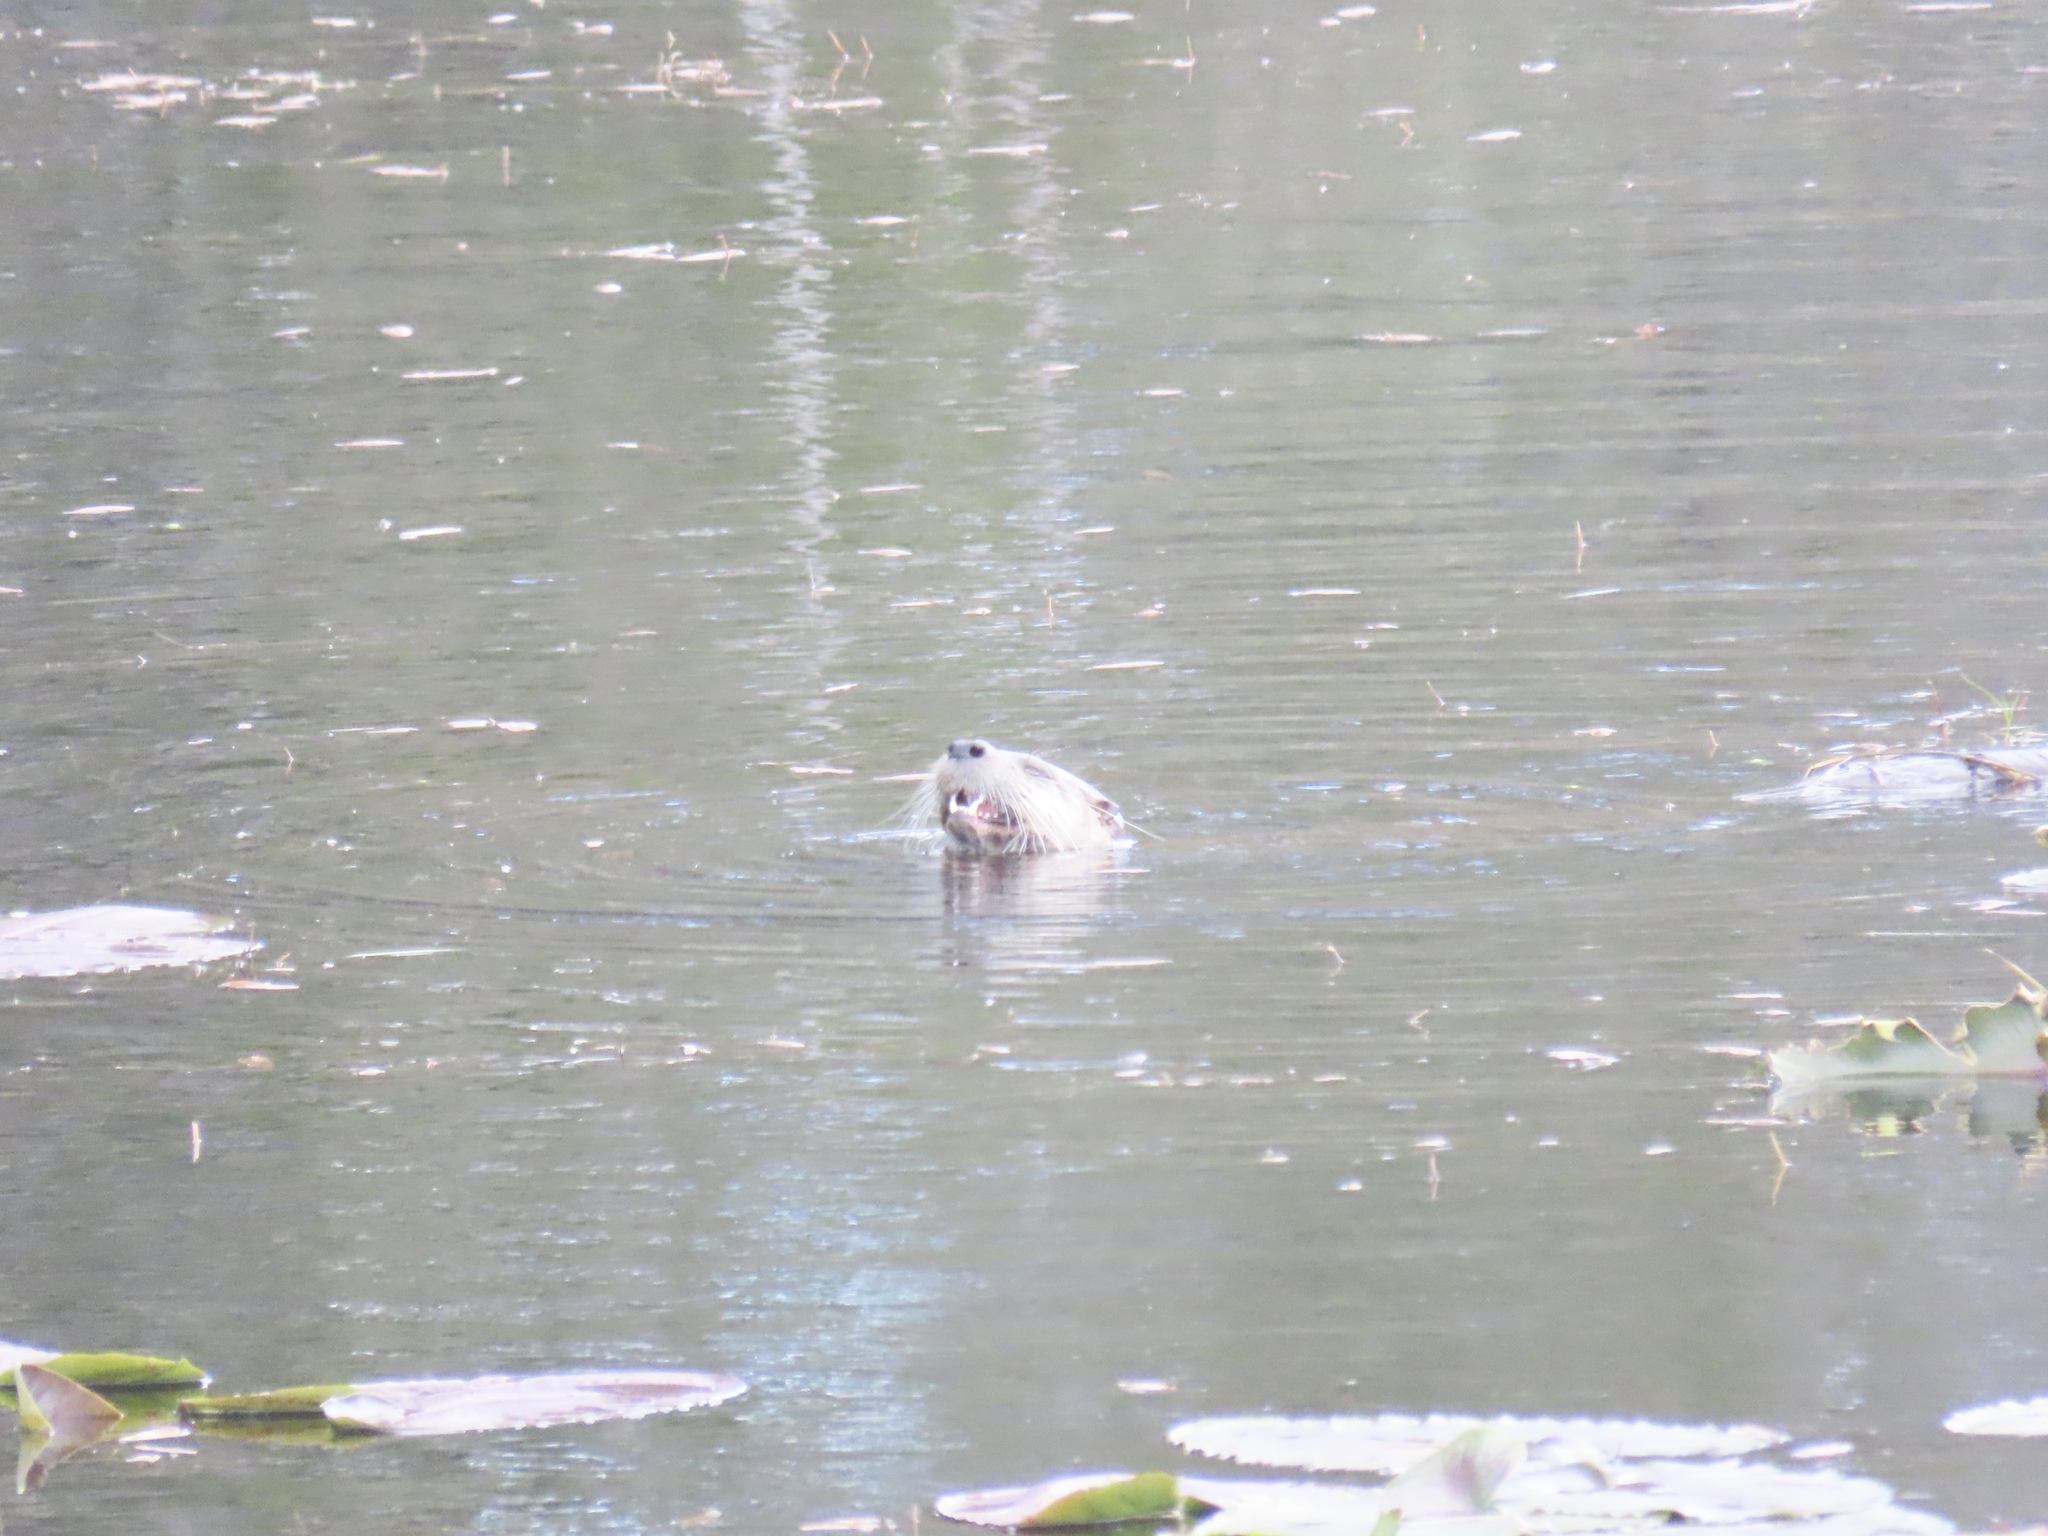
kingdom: Animalia
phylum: Chordata
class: Mammalia
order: Carnivora
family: Mustelidae
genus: Lontra
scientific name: Lontra canadensis
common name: North american river otter
